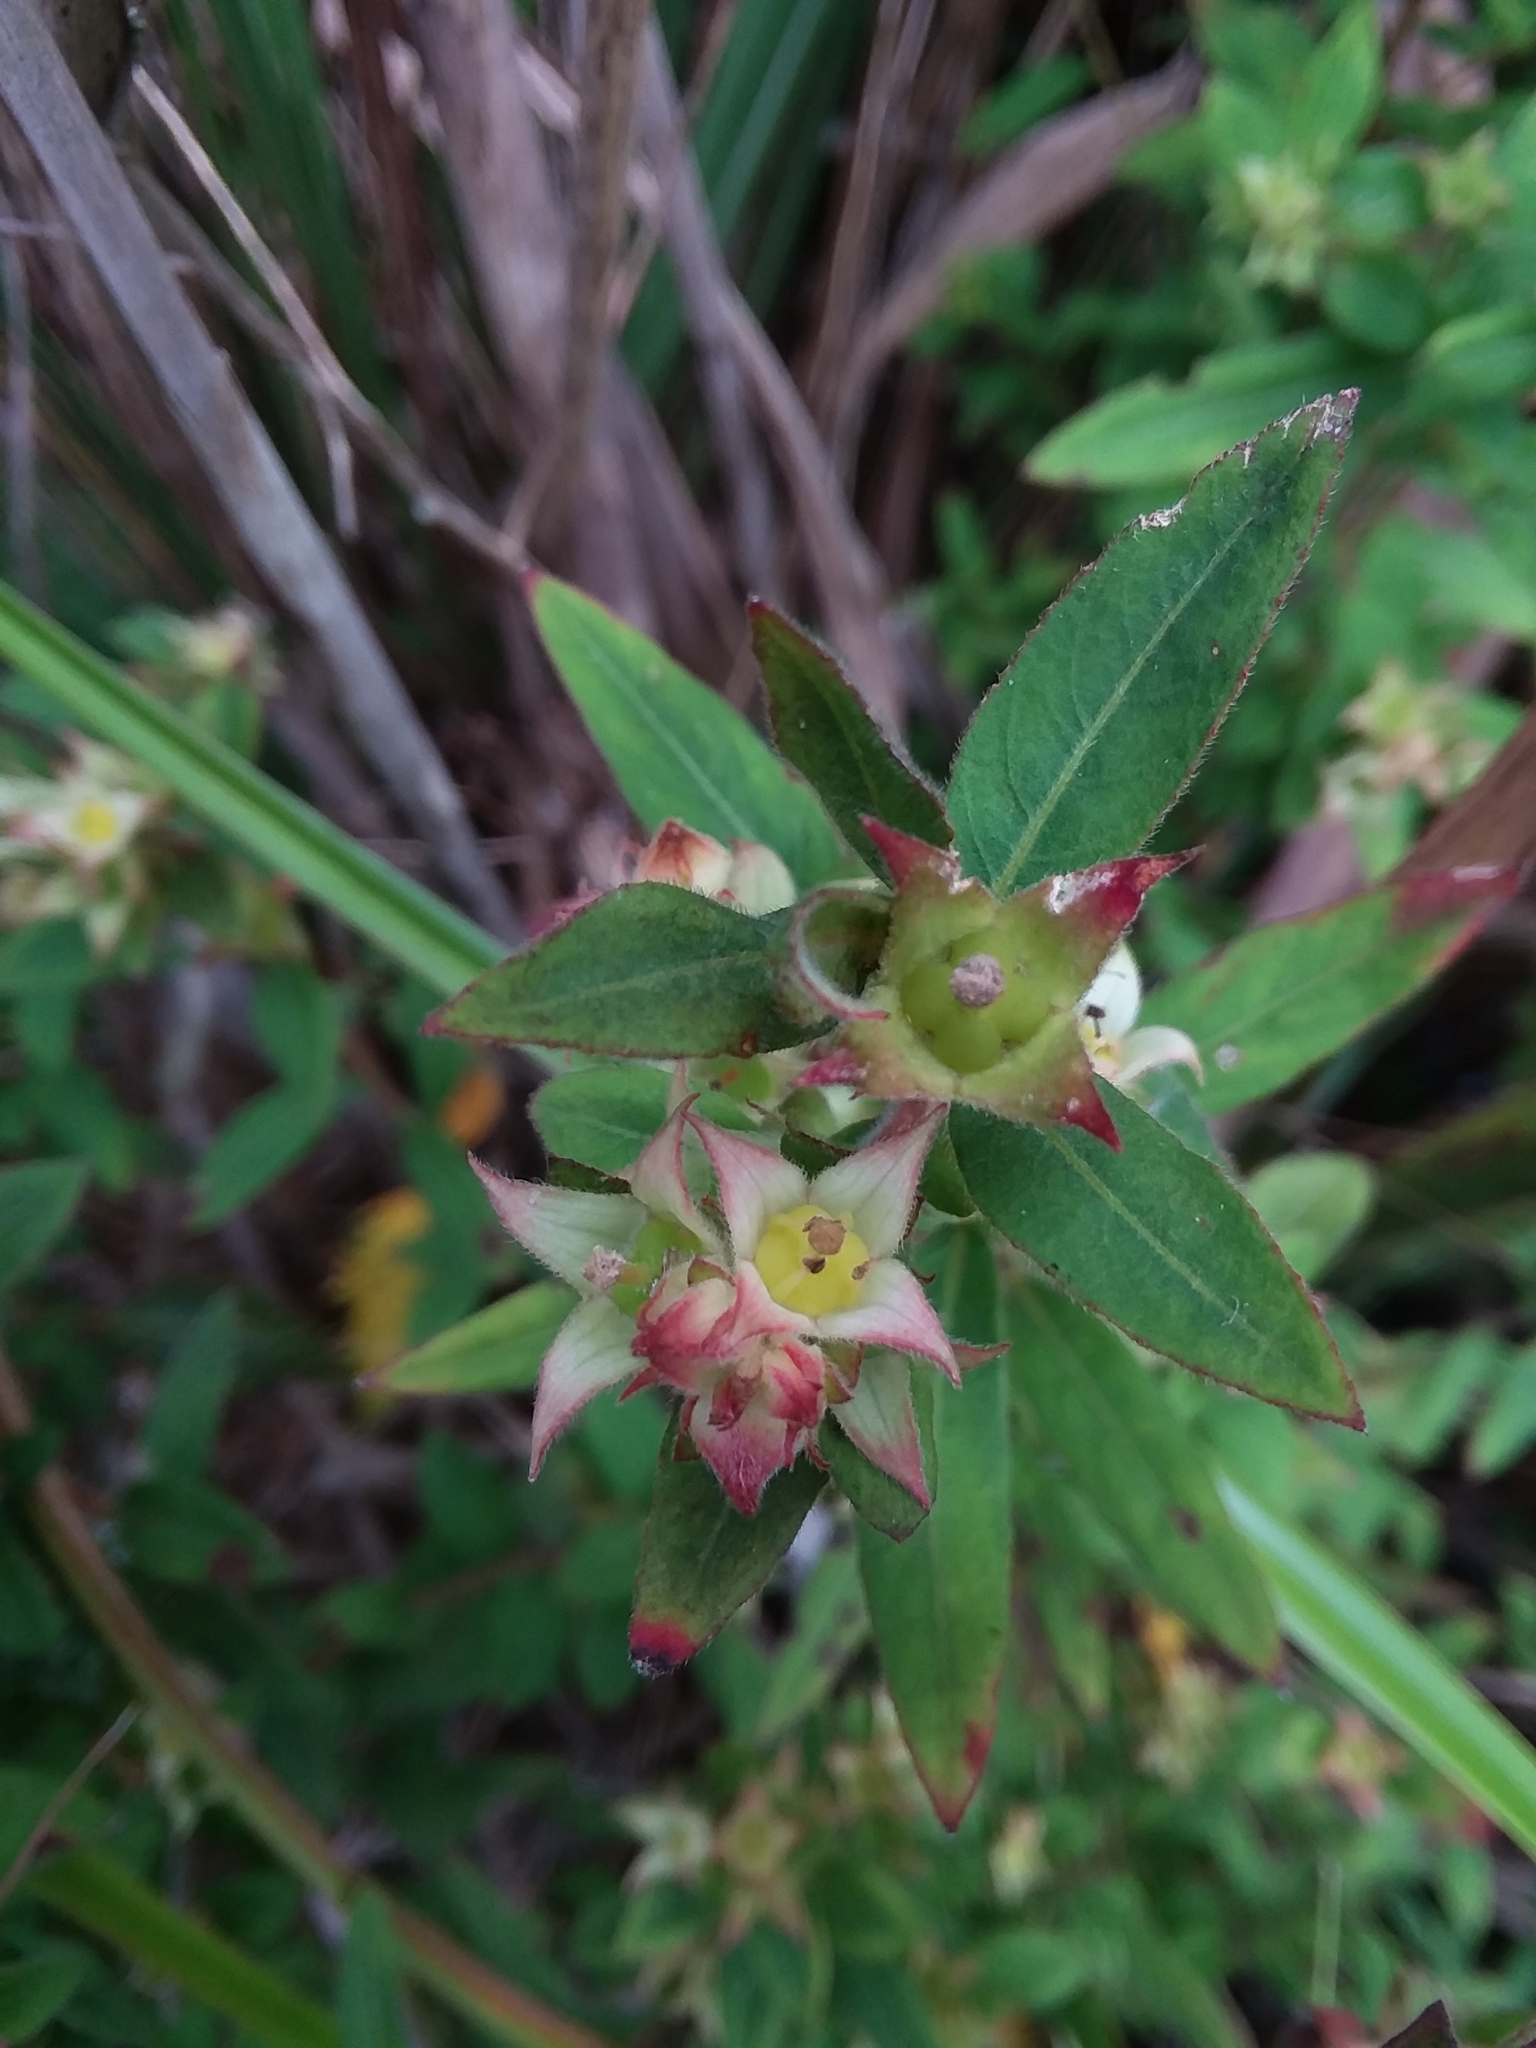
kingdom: Plantae
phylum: Tracheophyta
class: Magnoliopsida
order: Myrtales
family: Onagraceae
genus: Ludwigia
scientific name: Ludwigia pilosa
